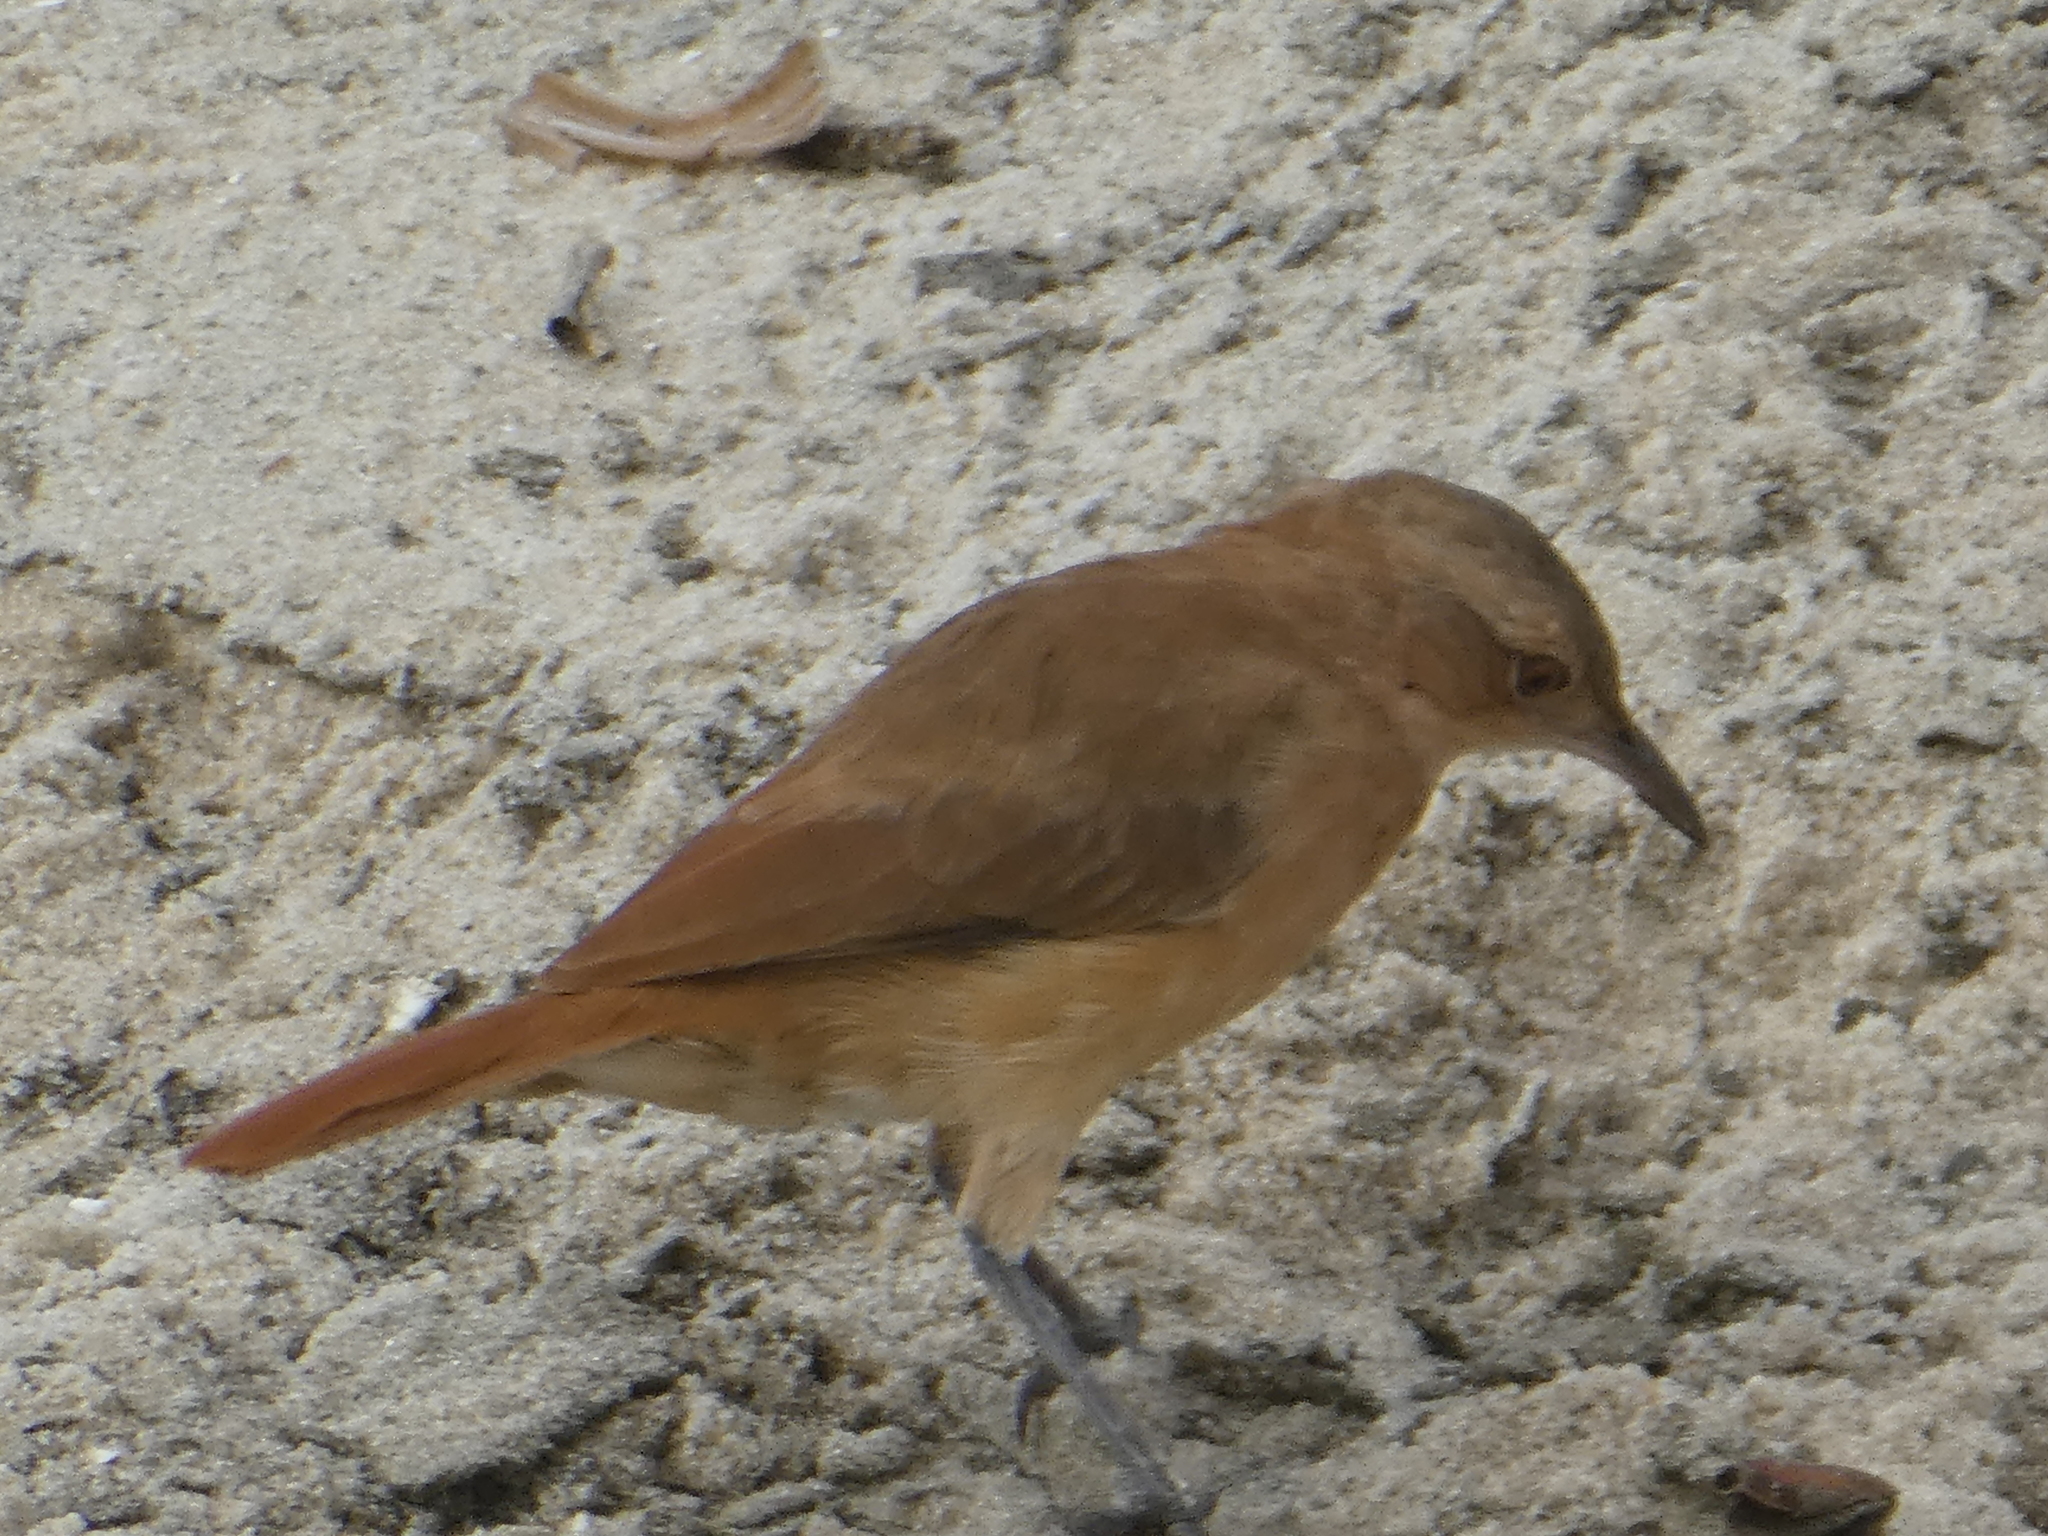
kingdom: Animalia
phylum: Chordata
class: Aves
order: Passeriformes
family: Furnariidae
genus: Furnarius
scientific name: Furnarius rufus
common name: Rufous hornero
